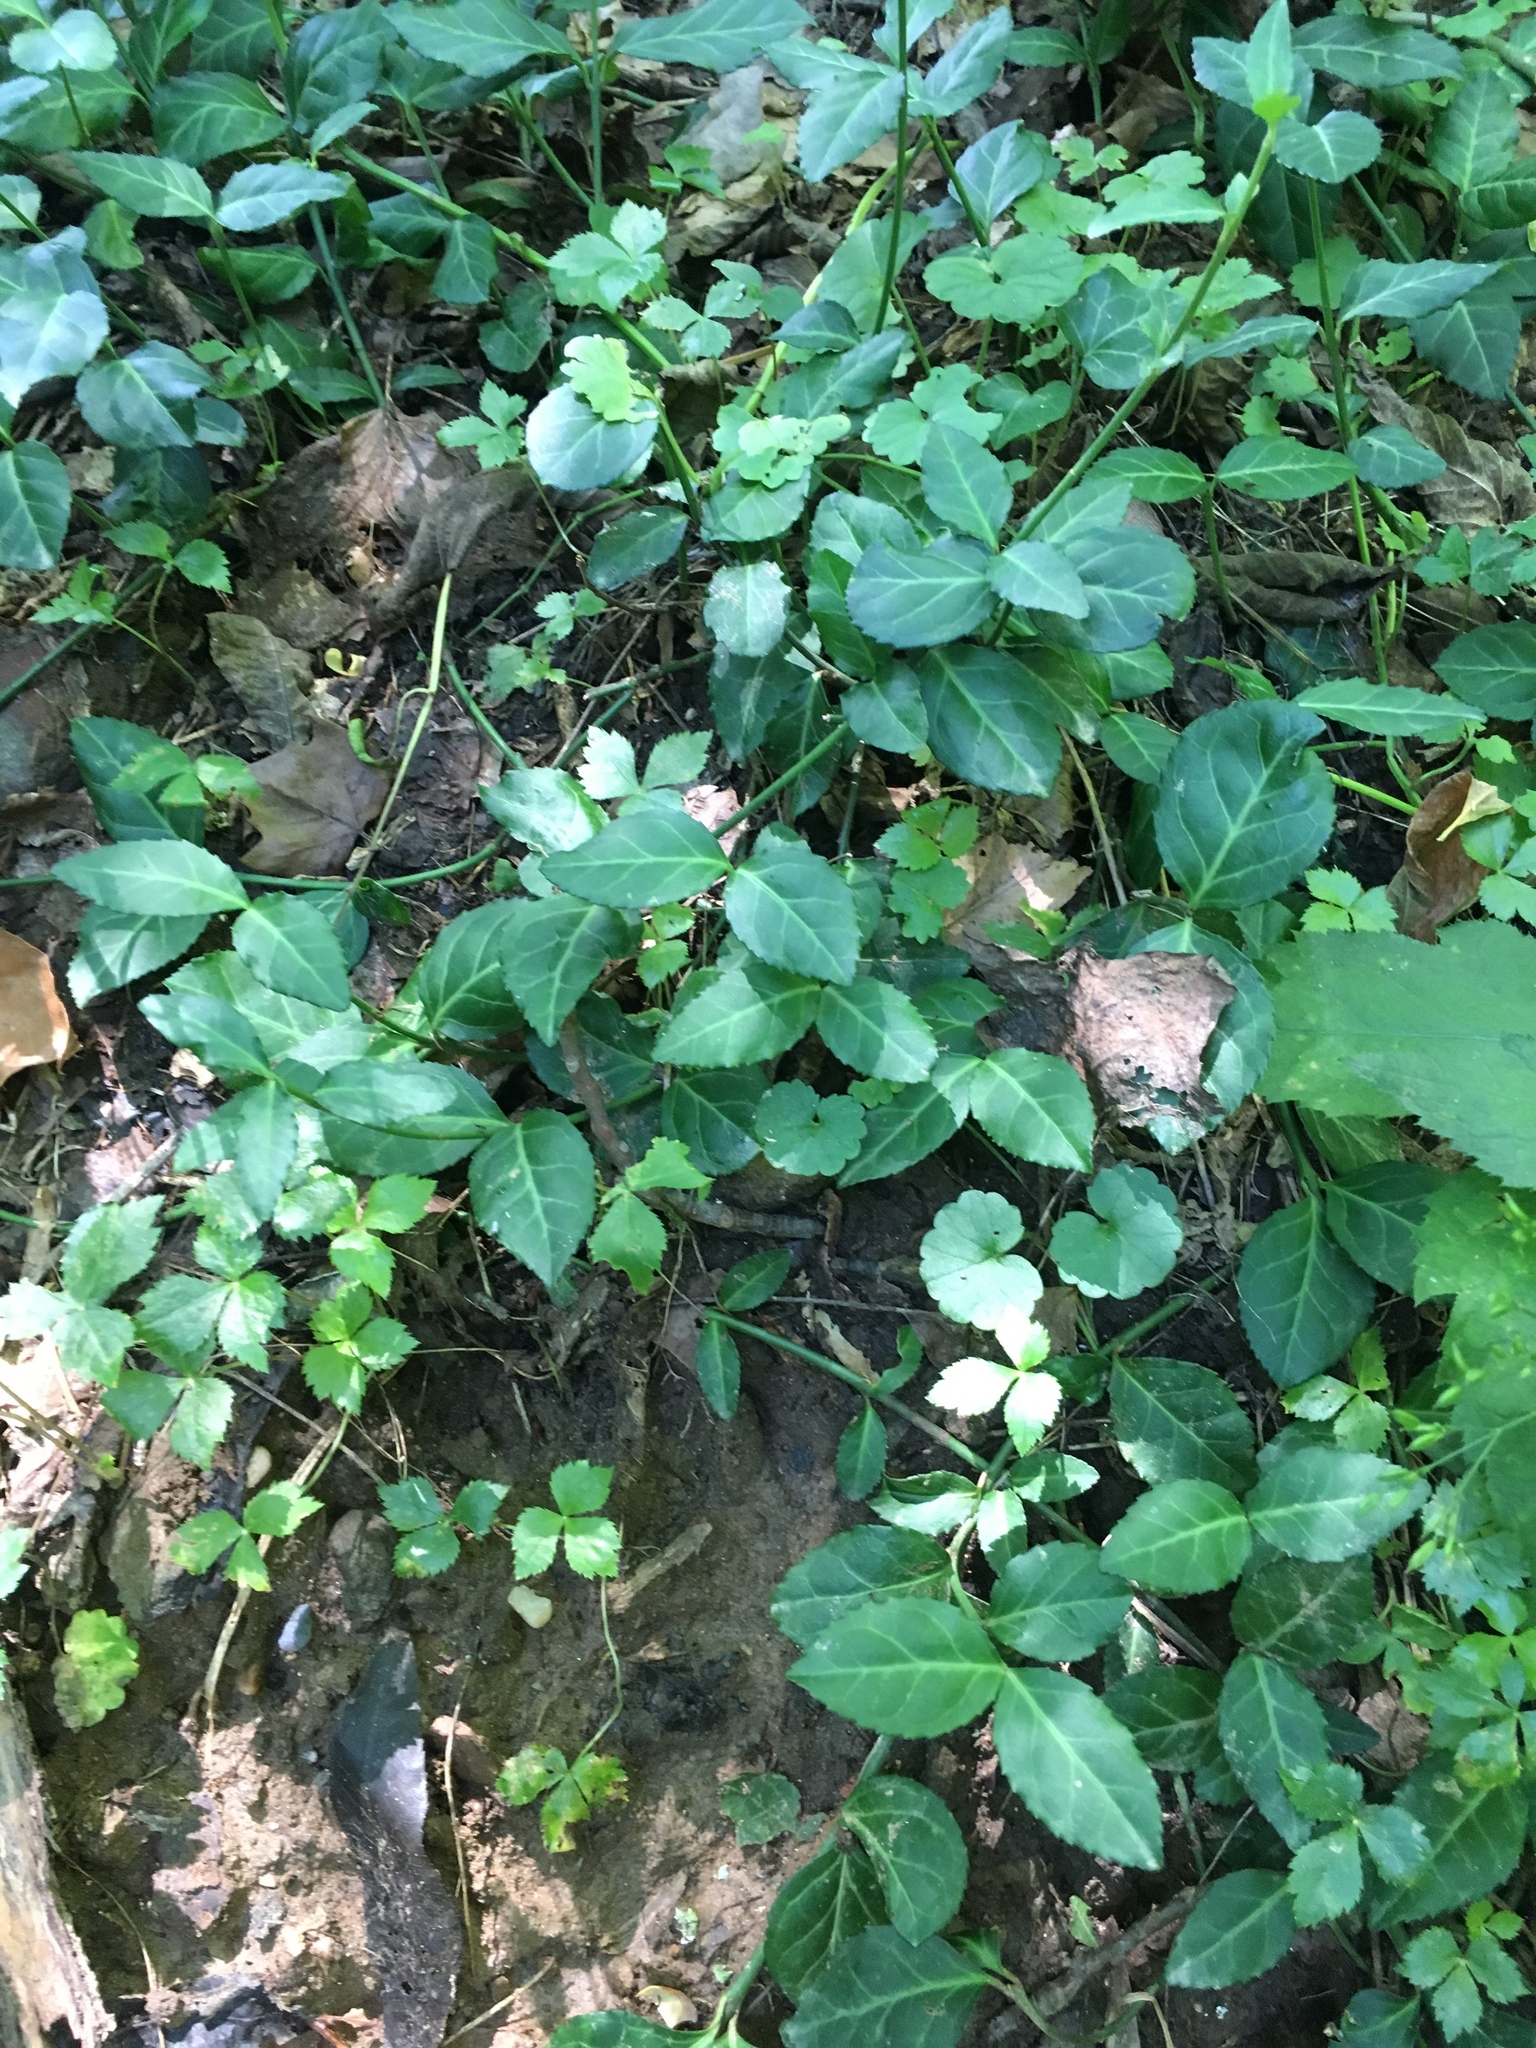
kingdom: Plantae
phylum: Tracheophyta
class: Magnoliopsida
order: Celastrales
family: Celastraceae
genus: Euonymus
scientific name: Euonymus fortunei
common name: Climbing euonymus
